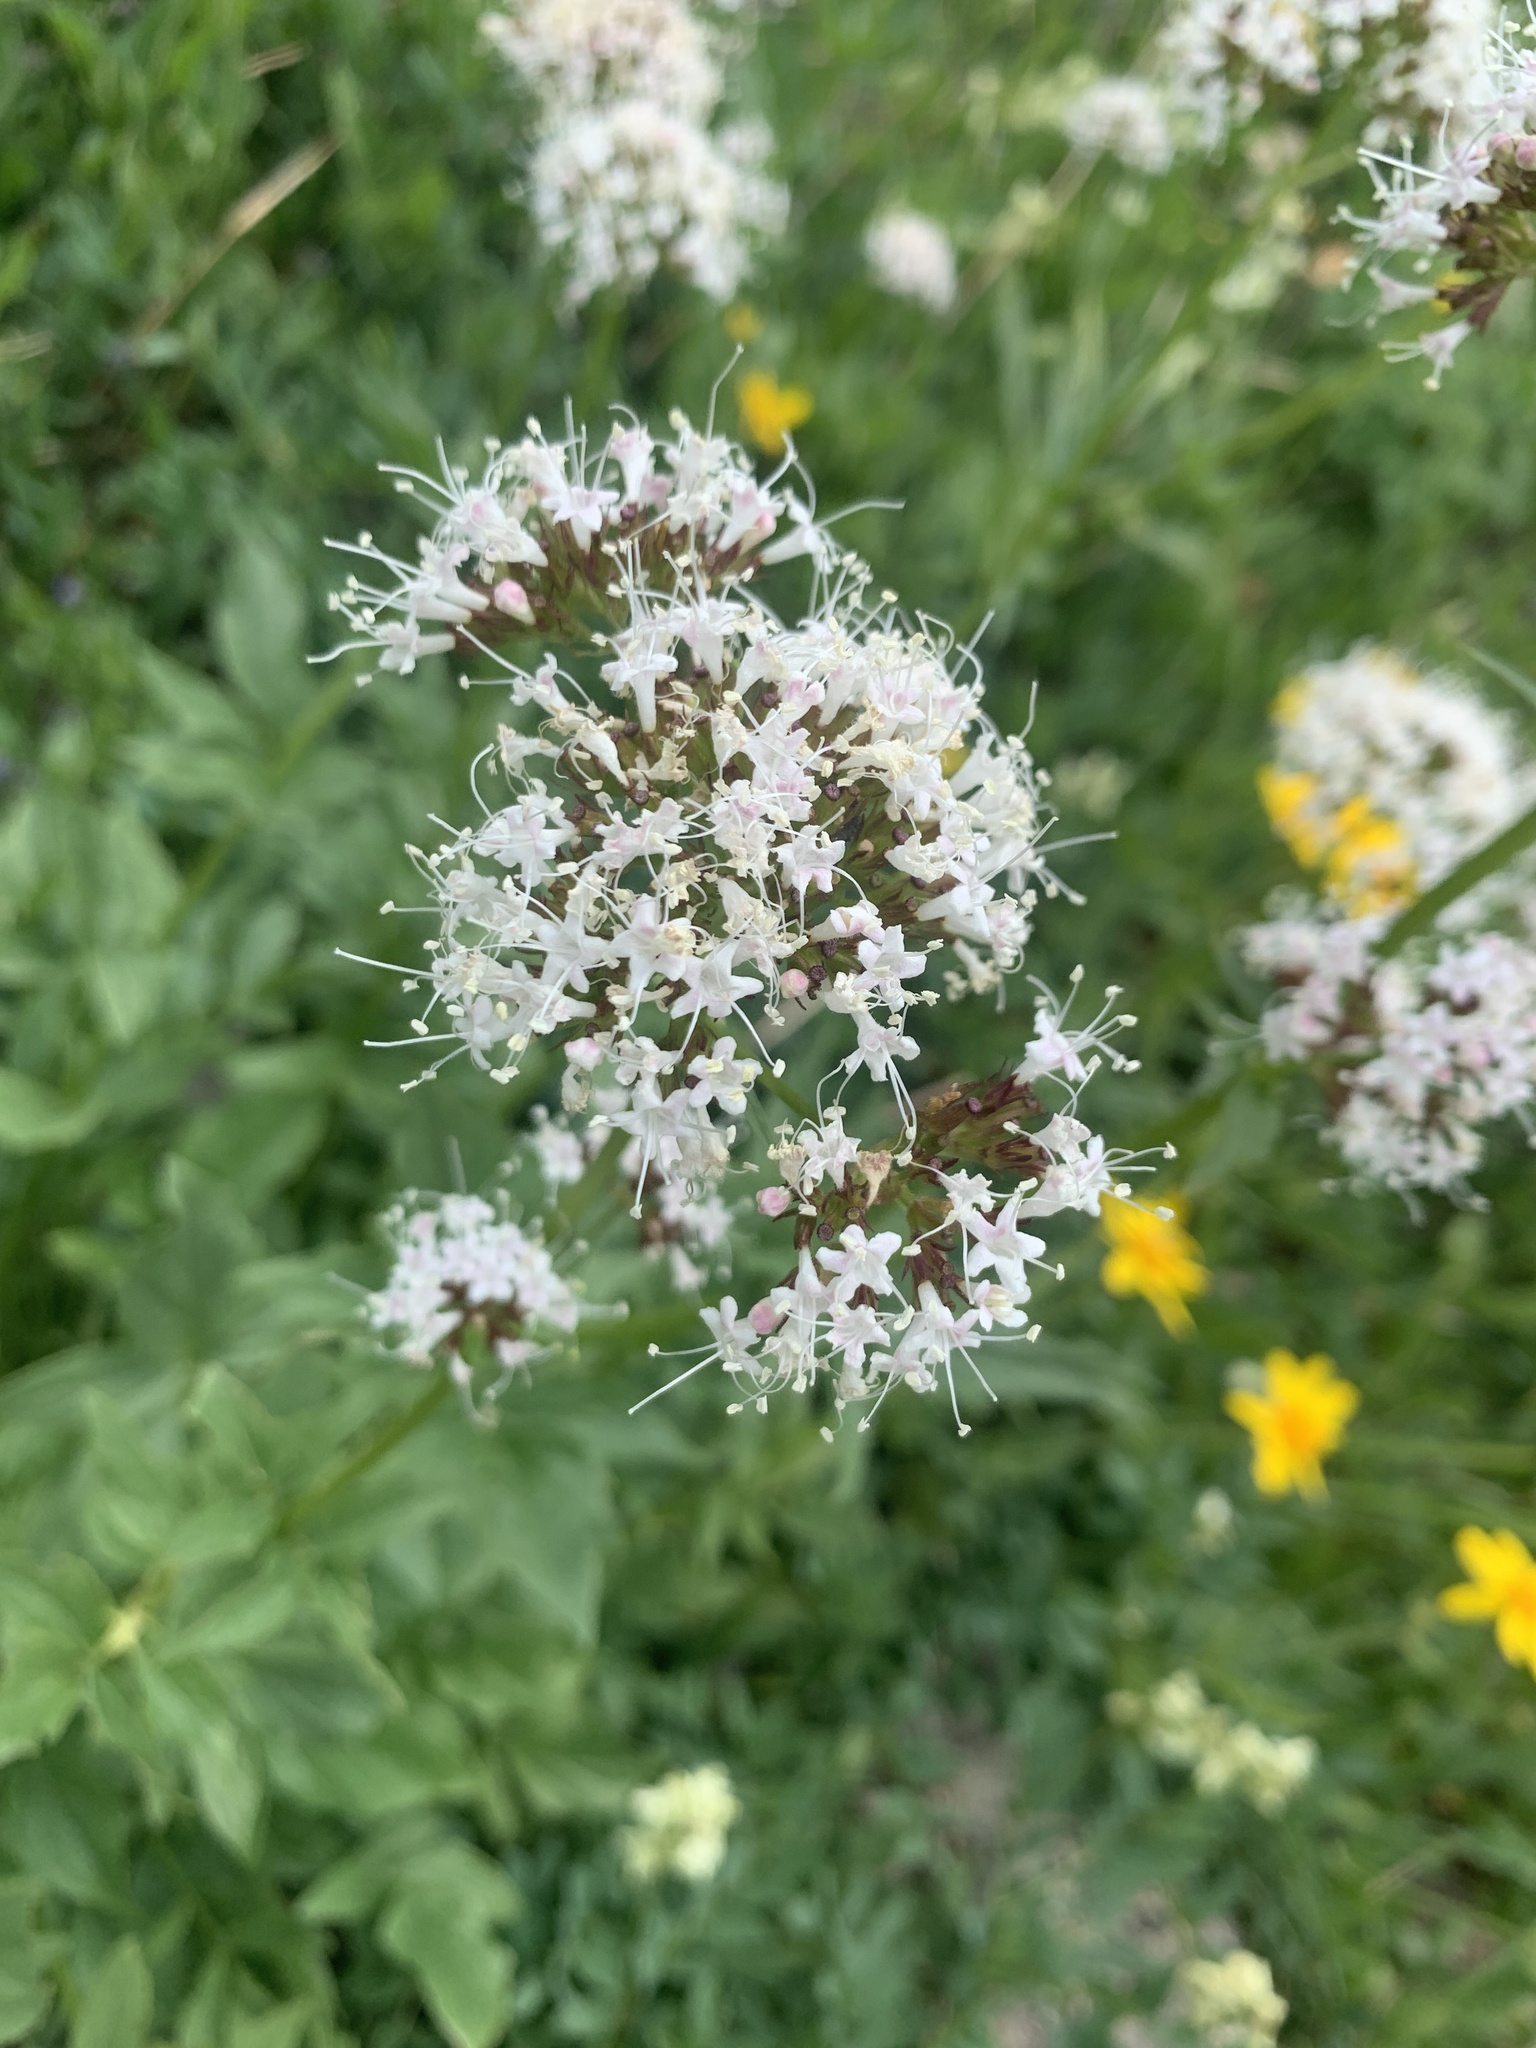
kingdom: Plantae
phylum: Tracheophyta
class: Magnoliopsida
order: Dipsacales
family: Caprifoliaceae
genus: Valeriana
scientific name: Valeriana sitchensis
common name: Pacific valerian
